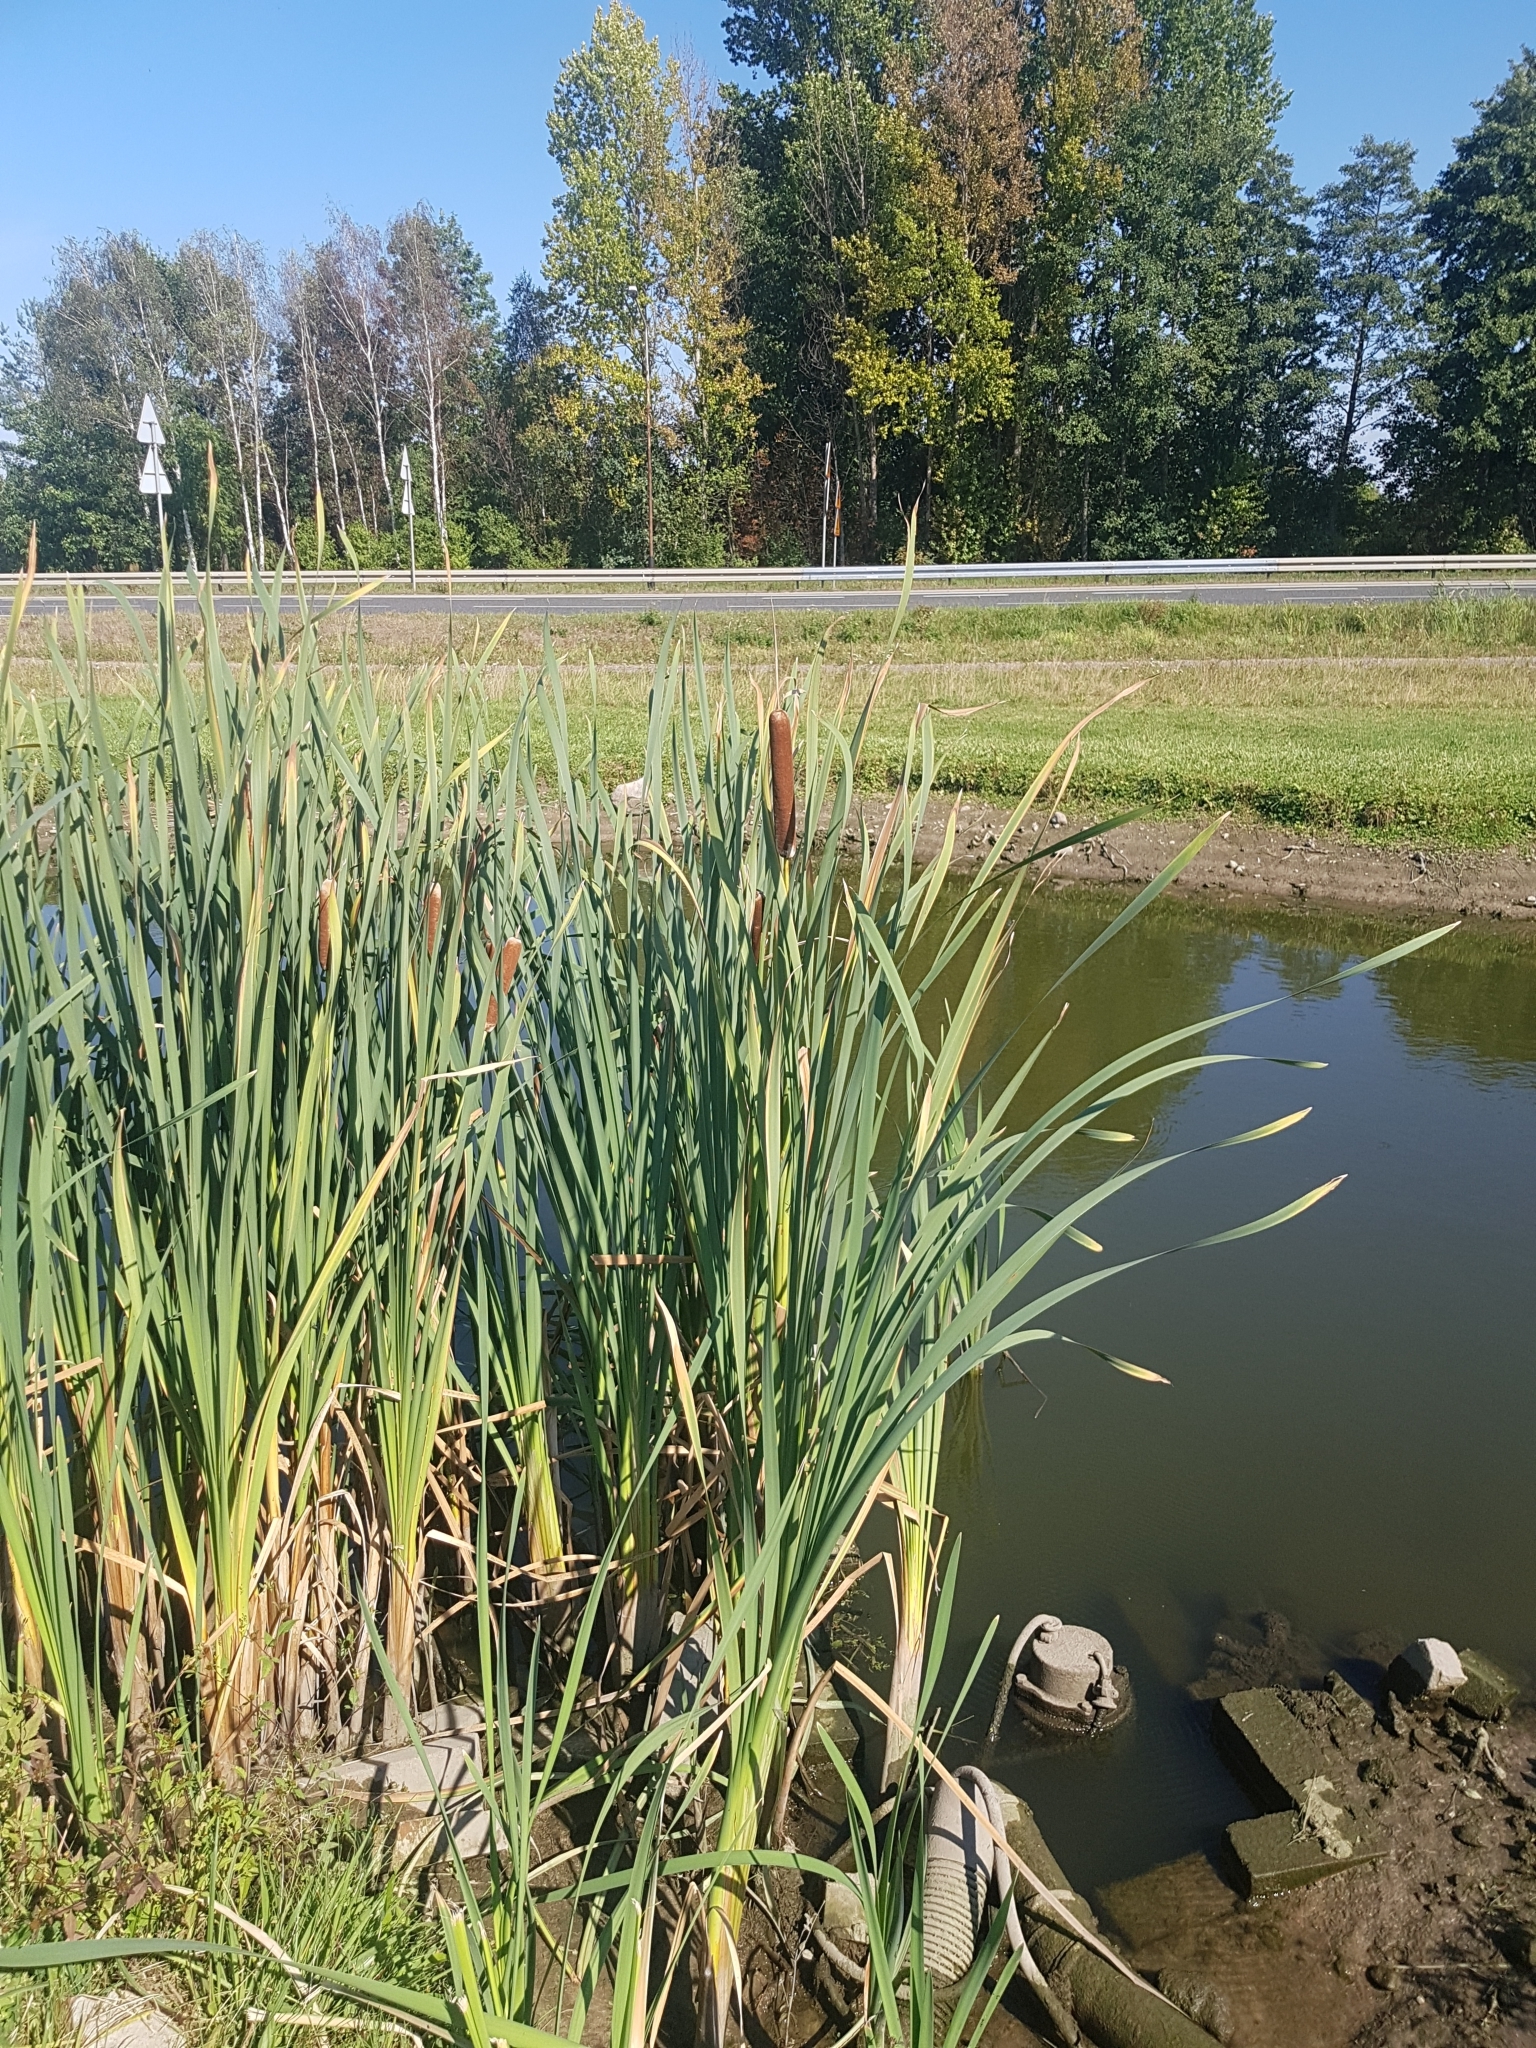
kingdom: Plantae
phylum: Tracheophyta
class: Liliopsida
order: Poales
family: Typhaceae
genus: Typha
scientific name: Typha latifolia
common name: Broadleaf cattail
